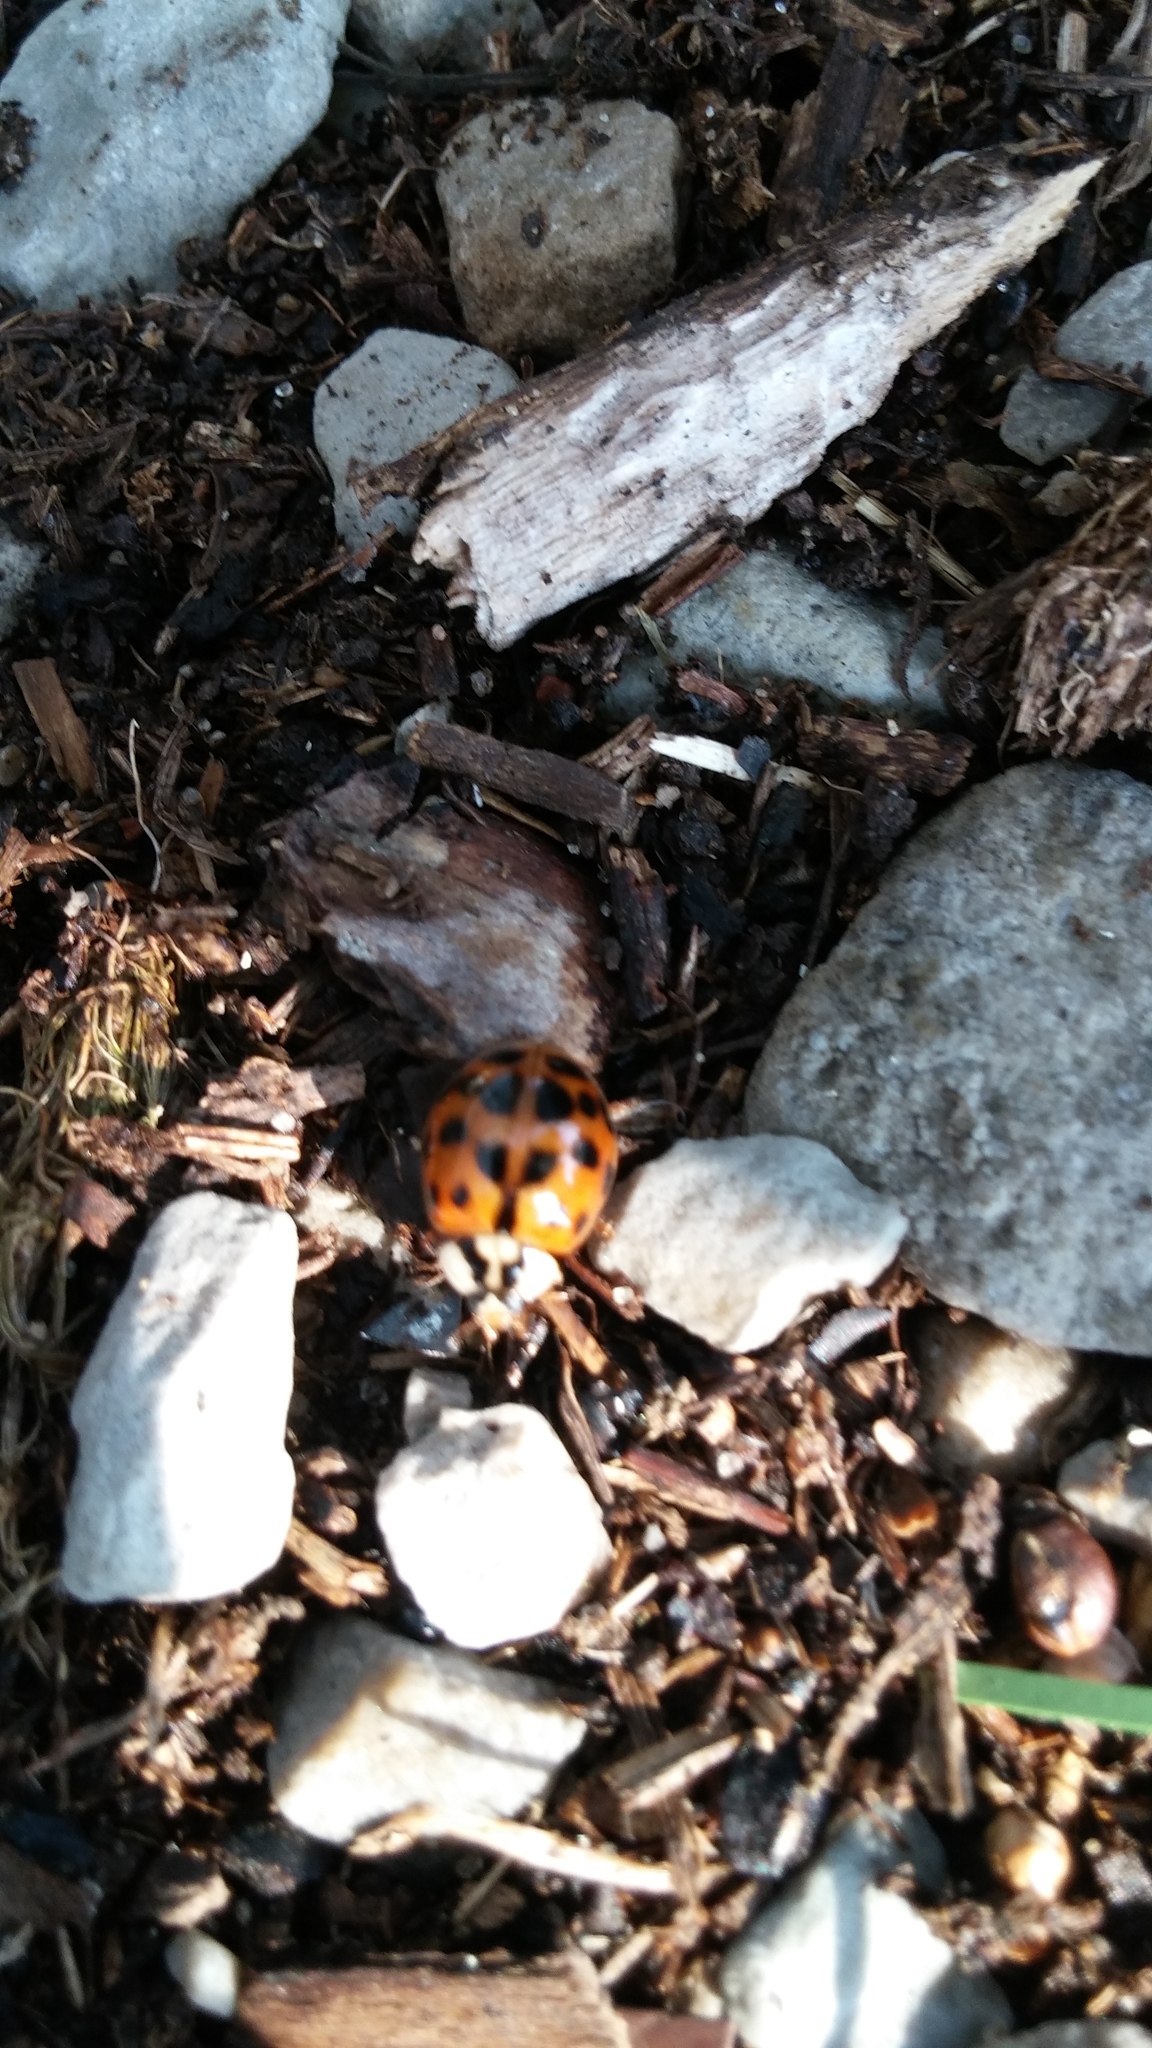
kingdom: Animalia
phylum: Arthropoda
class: Insecta
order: Coleoptera
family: Coccinellidae
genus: Harmonia
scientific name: Harmonia axyridis
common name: Harlequin ladybird
